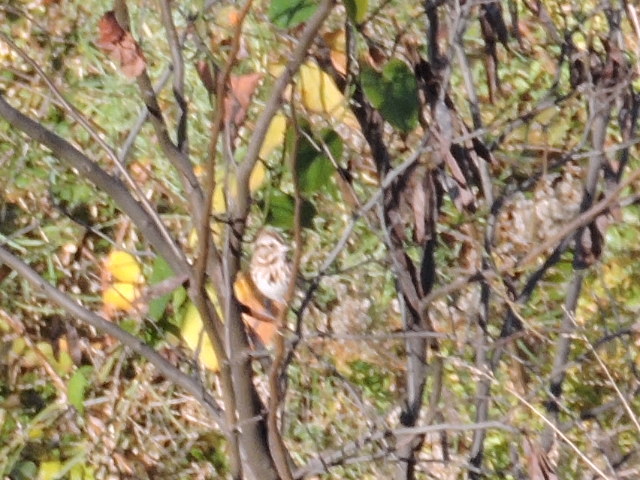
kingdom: Animalia
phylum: Chordata
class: Aves
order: Passeriformes
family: Passerellidae
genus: Melospiza
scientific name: Melospiza melodia
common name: Song sparrow
